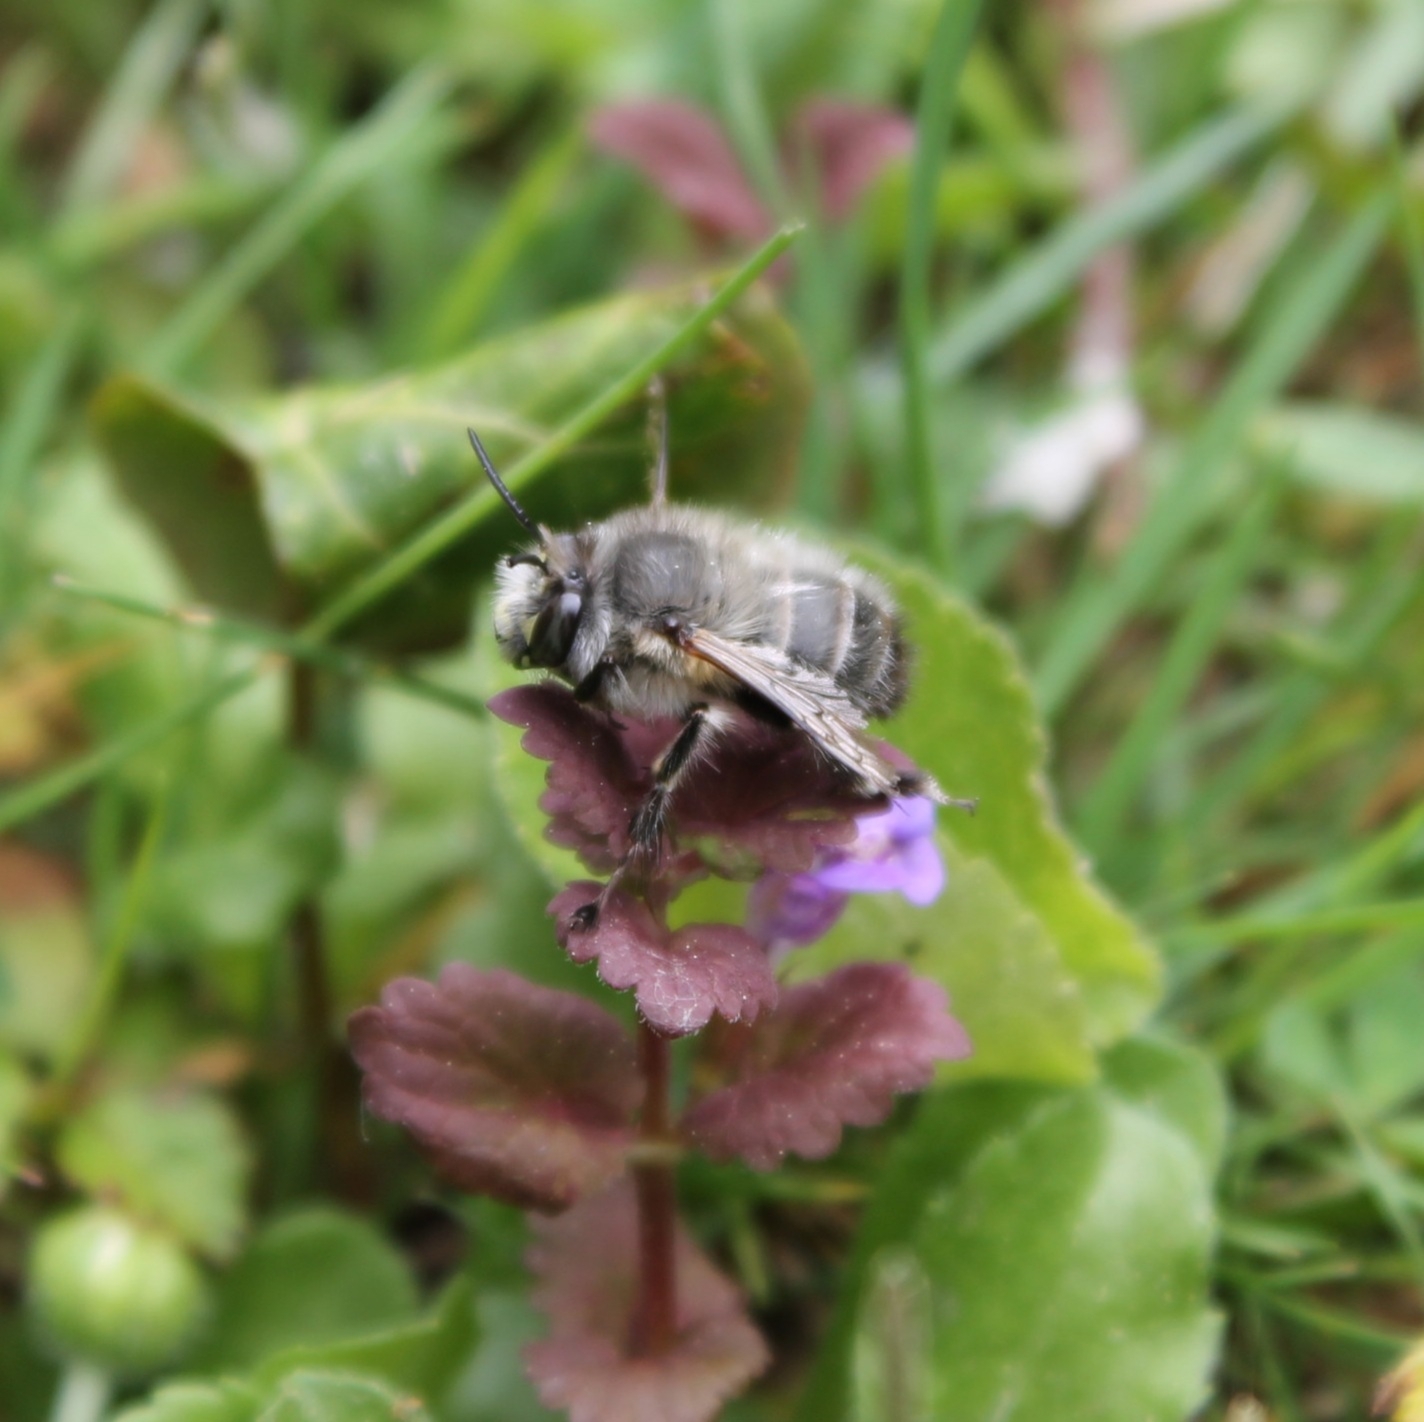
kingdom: Animalia
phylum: Arthropoda
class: Insecta
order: Hymenoptera
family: Apidae
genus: Anthophora
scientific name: Anthophora plumipes
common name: Hairy-footed flower bee
